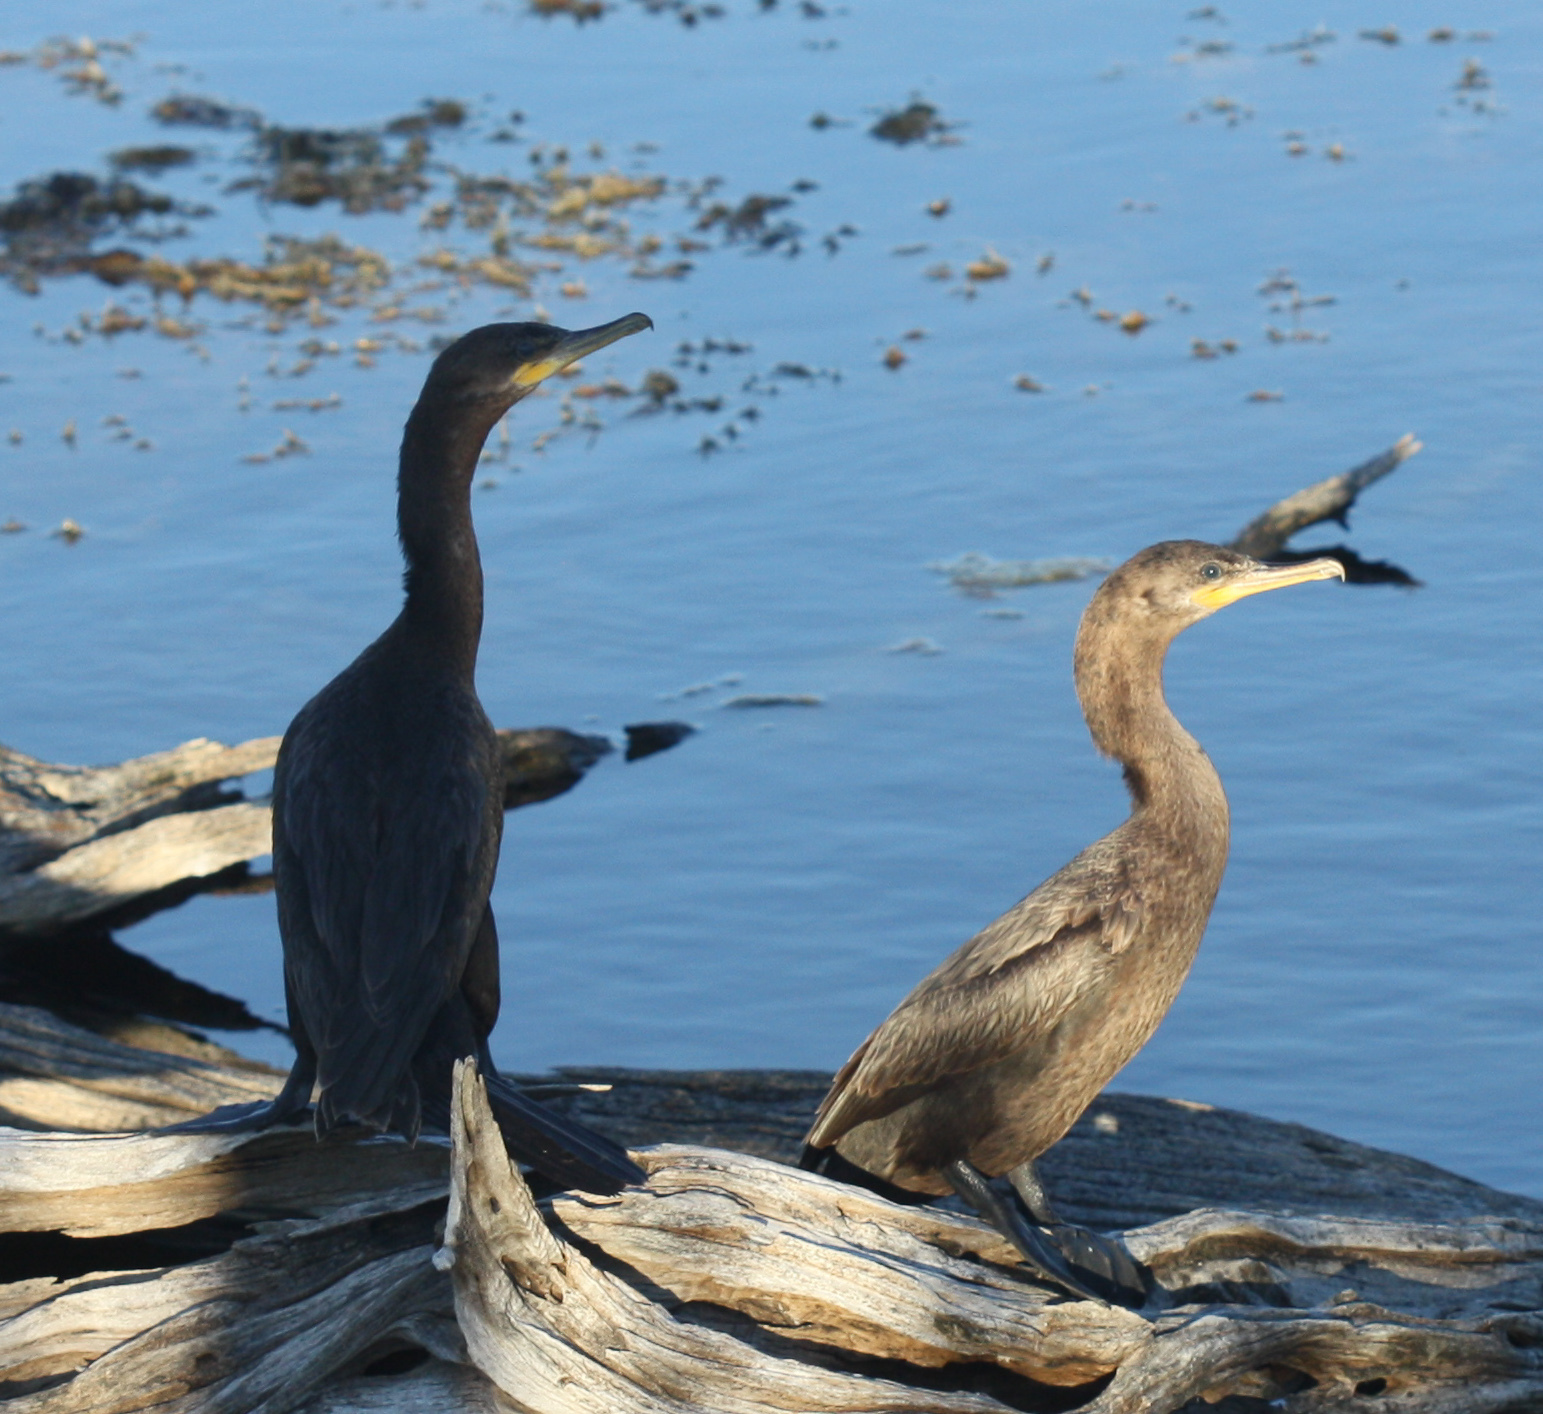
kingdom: Animalia
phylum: Chordata
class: Aves
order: Suliformes
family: Phalacrocoracidae
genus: Phalacrocorax
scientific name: Phalacrocorax brasilianus
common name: Neotropic cormorant
